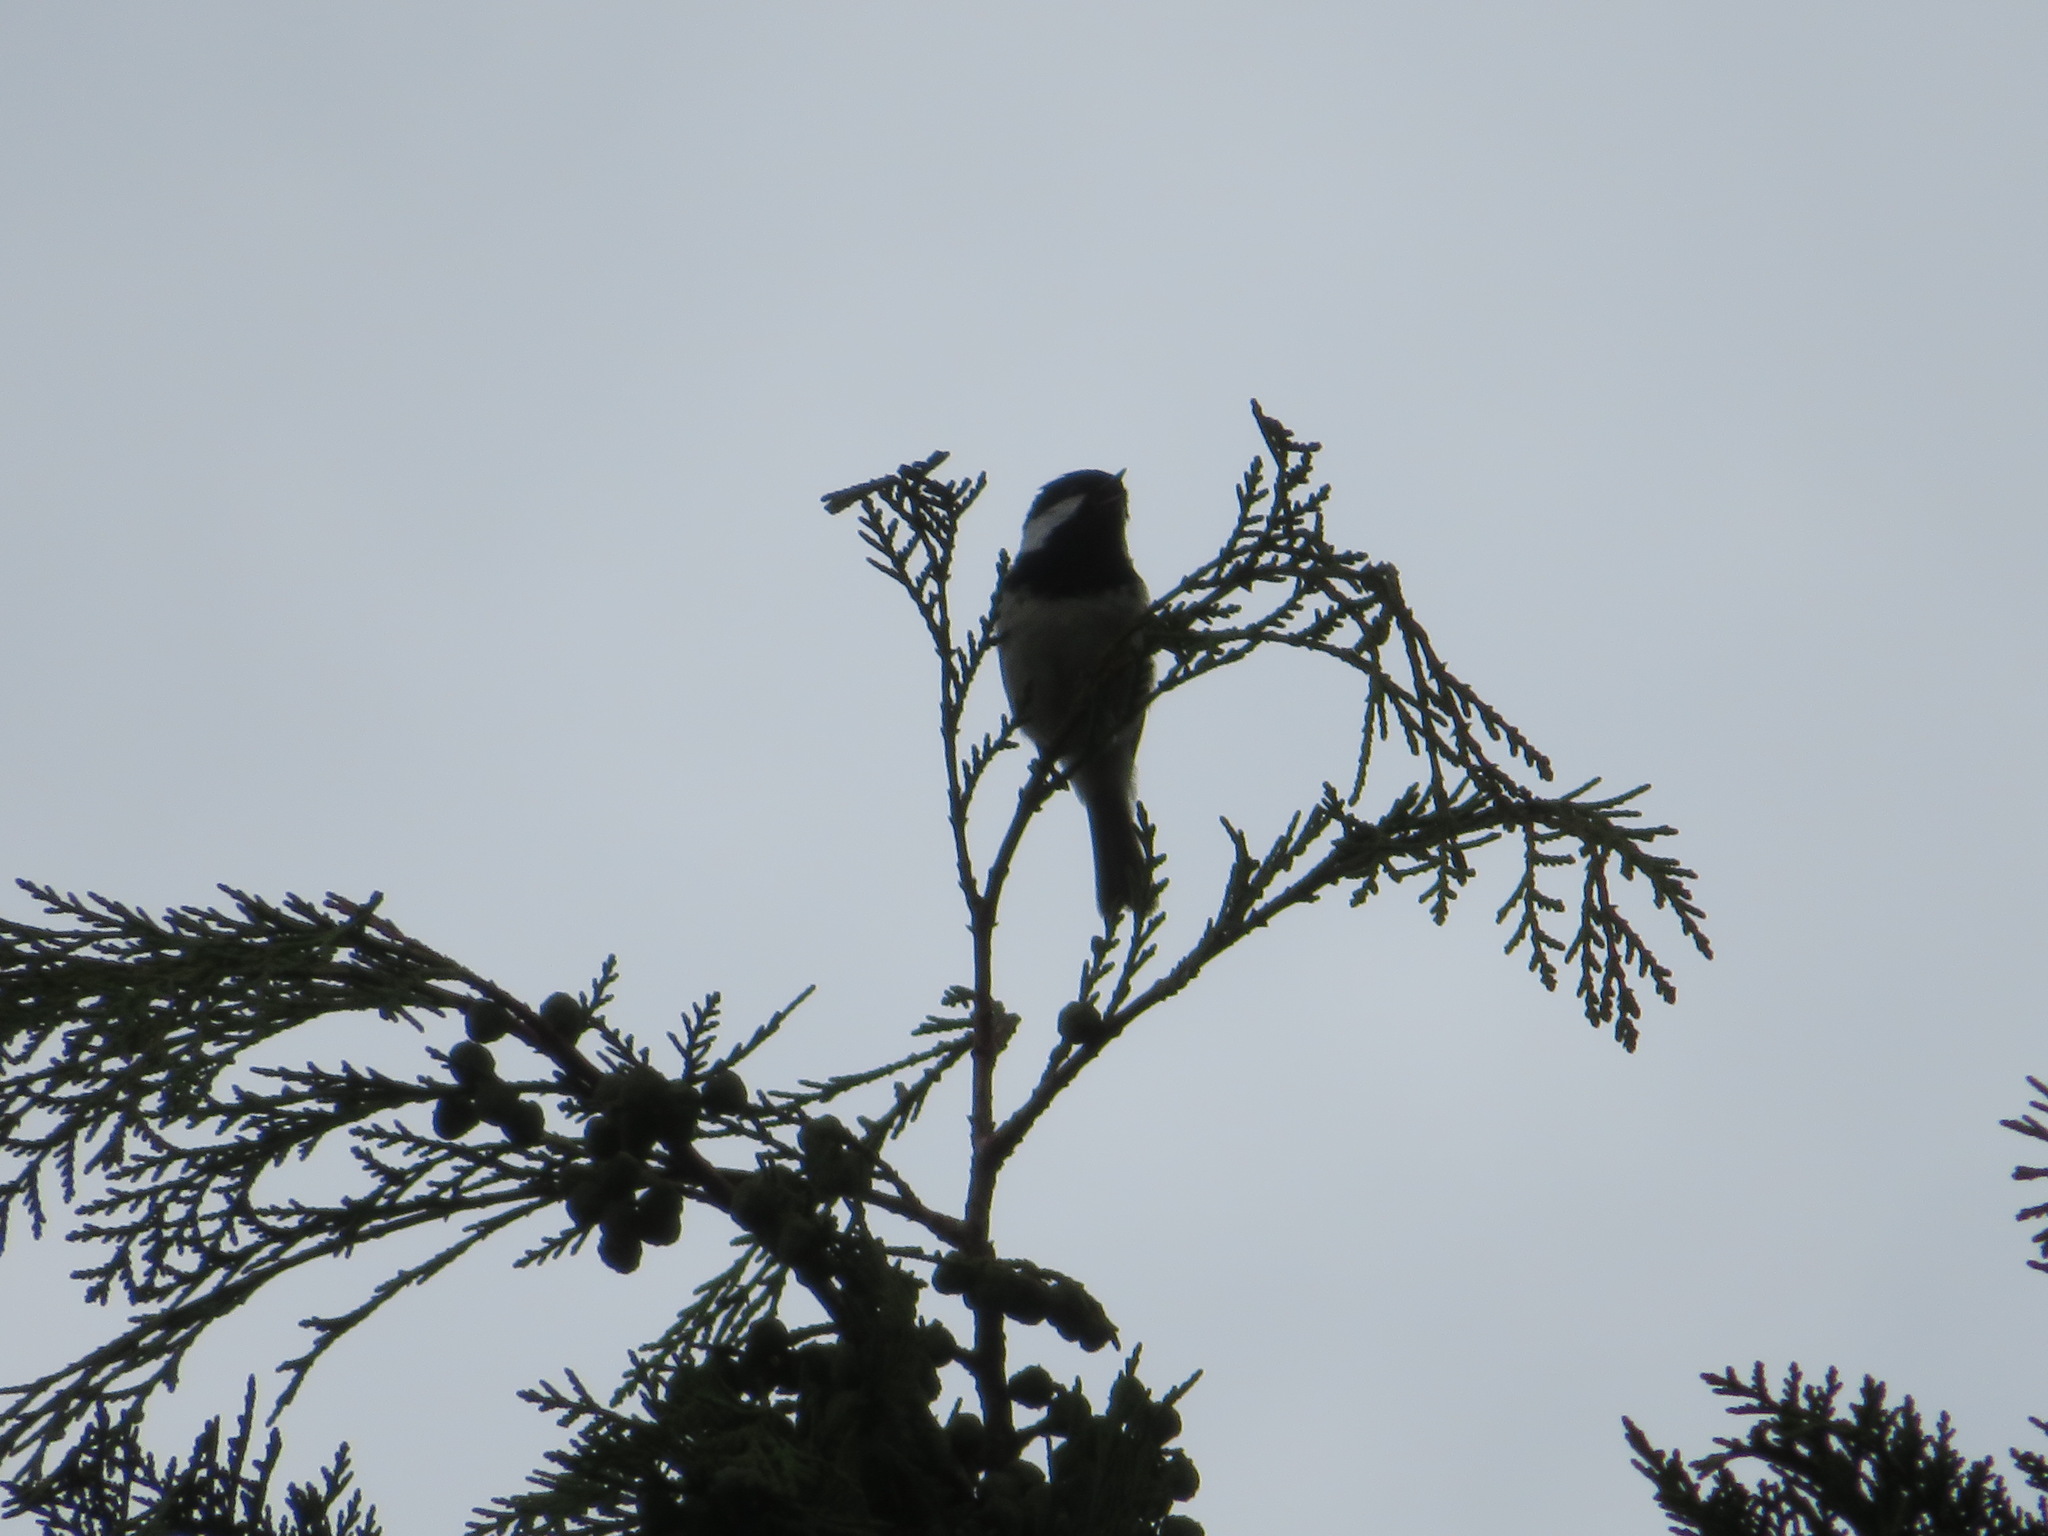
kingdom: Animalia
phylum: Chordata
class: Aves
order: Passeriformes
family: Paridae
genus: Periparus
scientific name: Periparus ater
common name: Coal tit
